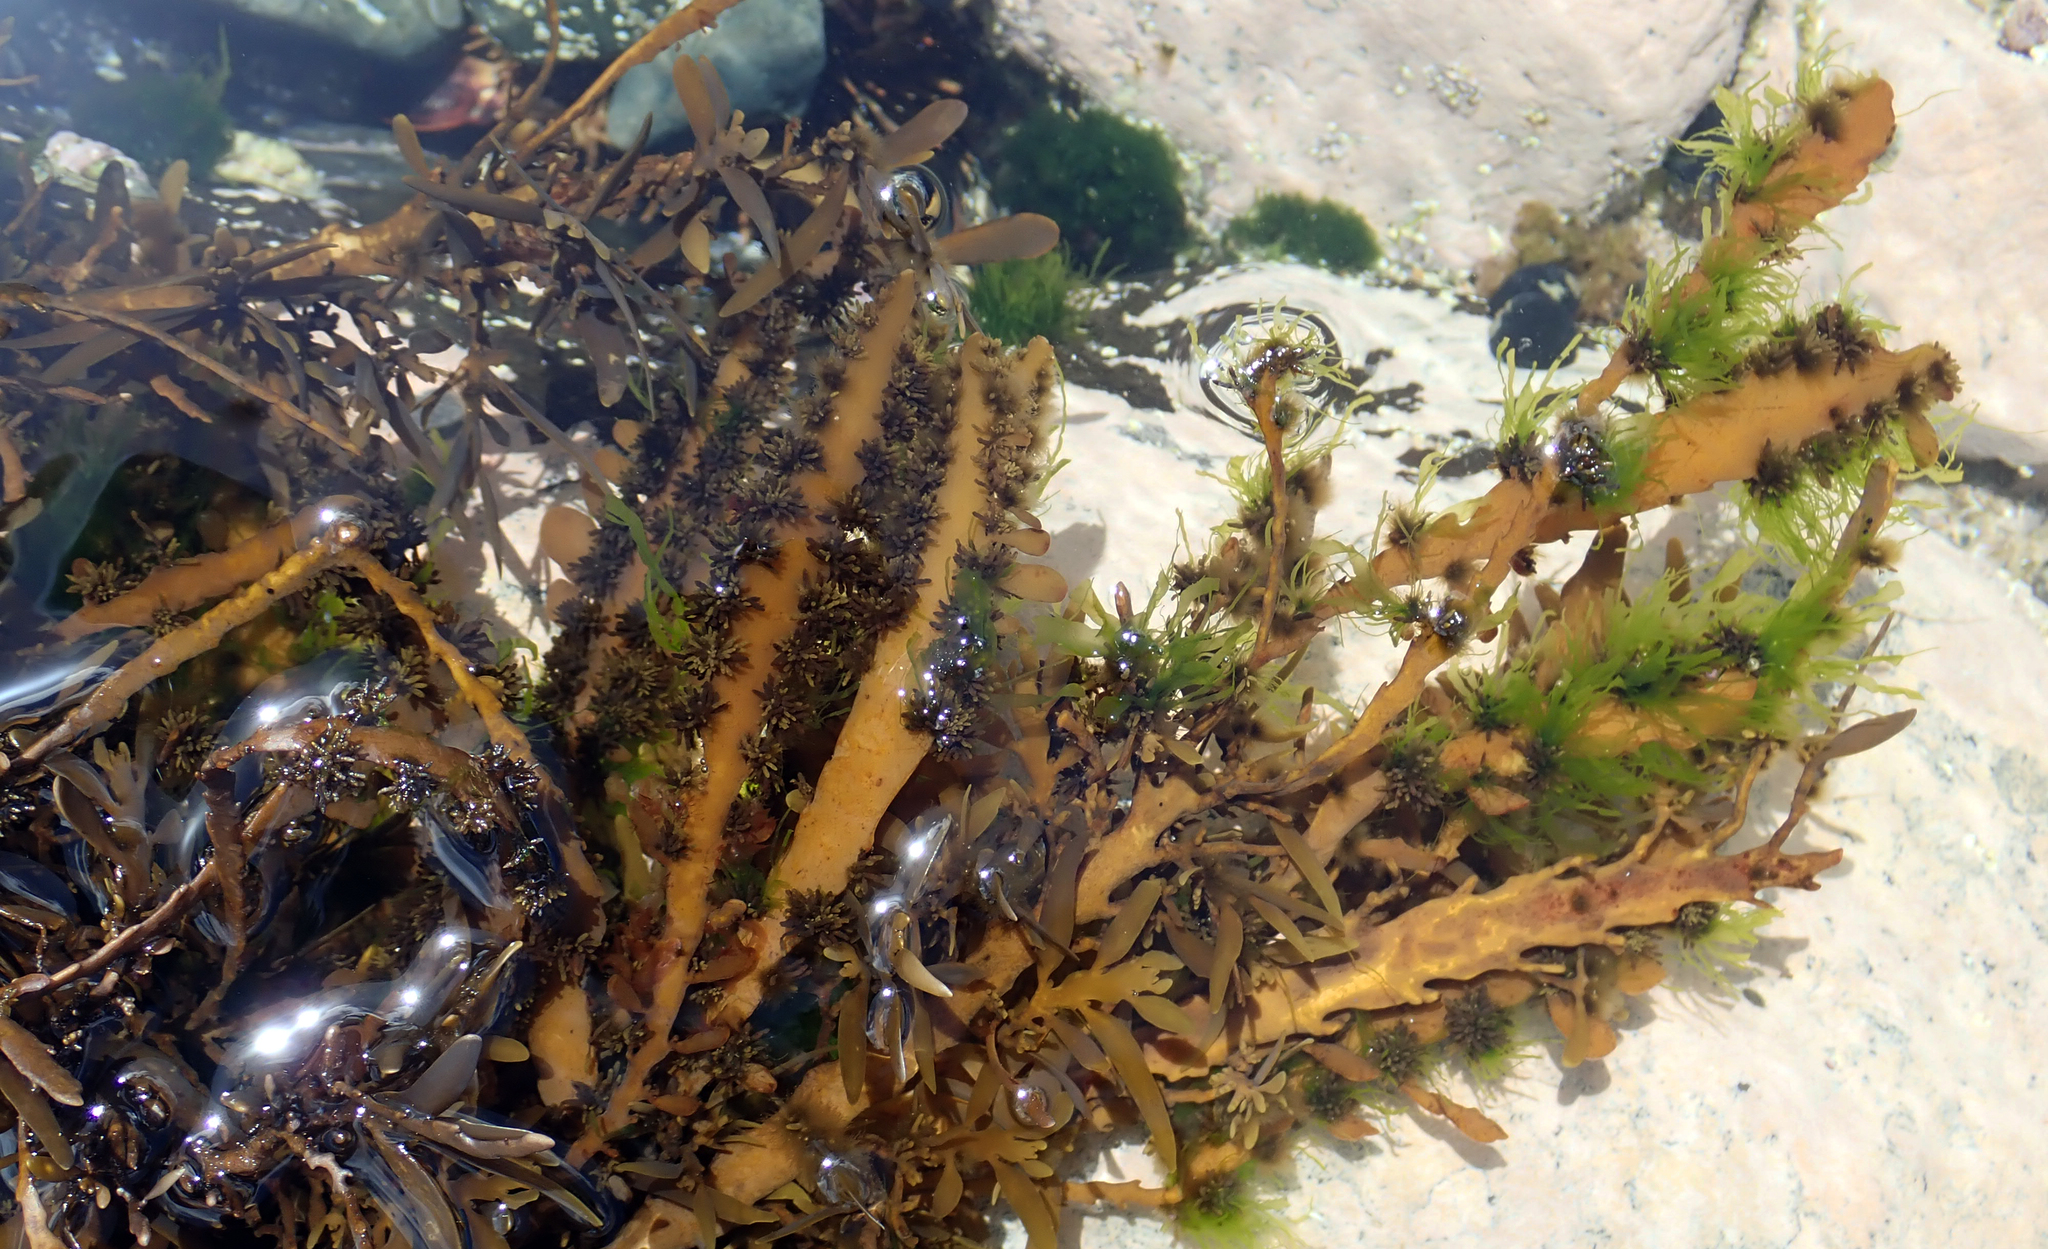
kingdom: Chromista
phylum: Ochrophyta
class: Phaeophyceae
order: Fucales
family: Sargassaceae
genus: Carpophyllum
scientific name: Carpophyllum maschalocarpum
